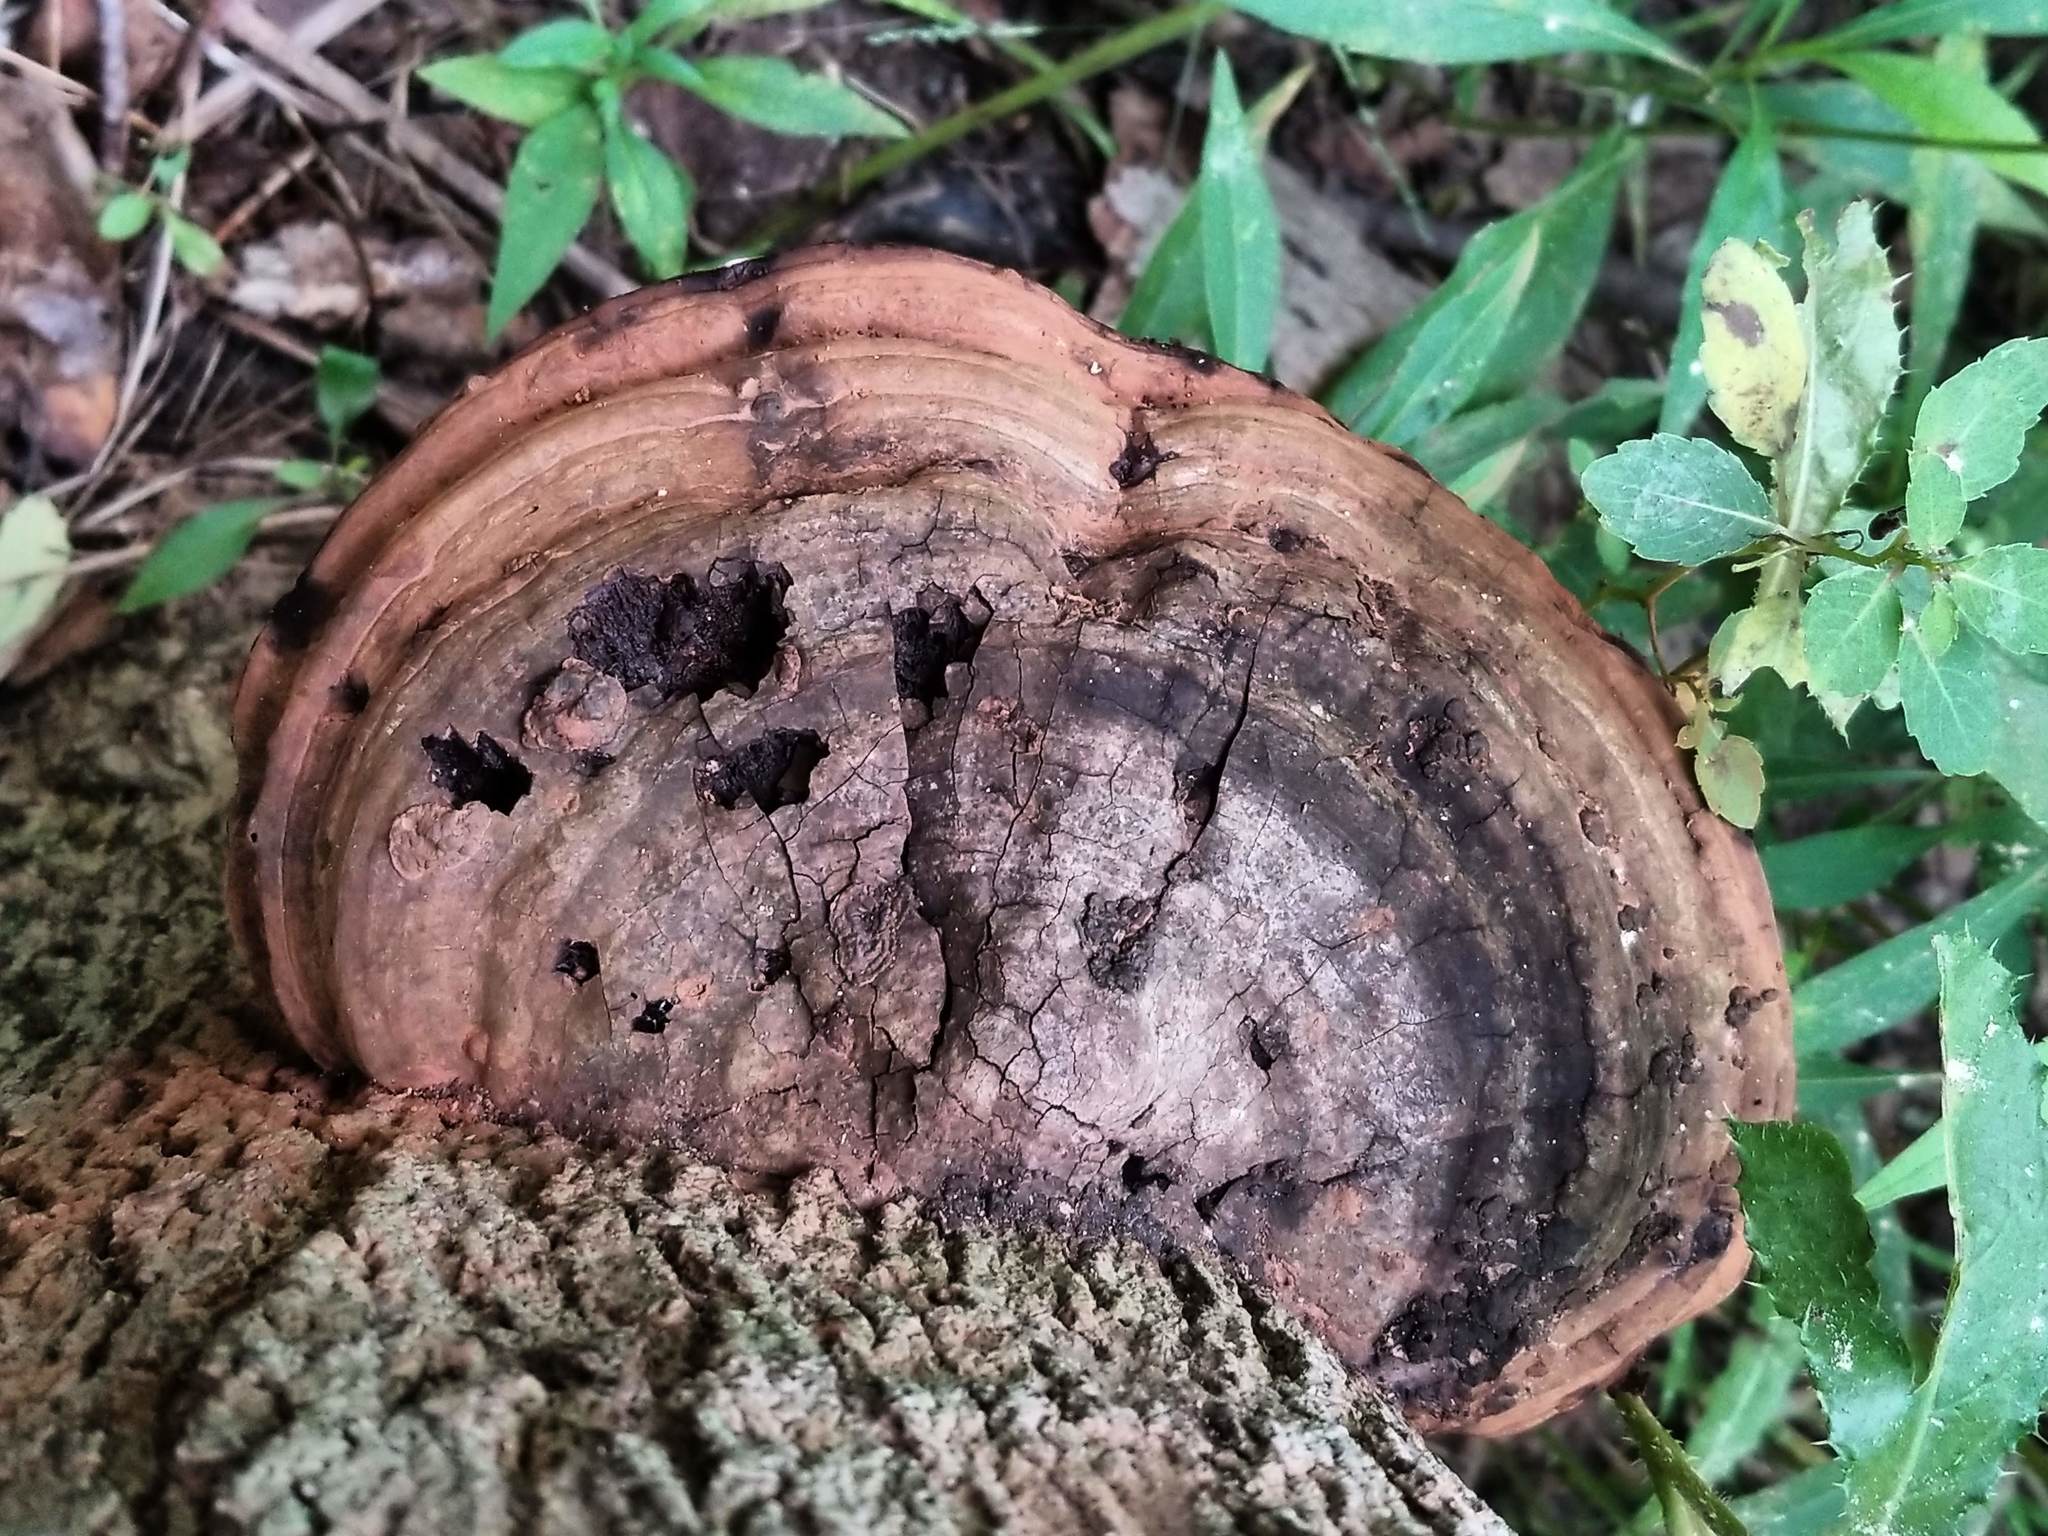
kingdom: Fungi
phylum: Basidiomycota
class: Agaricomycetes
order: Polyporales
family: Polyporaceae
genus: Ganoderma
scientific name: Ganoderma applanatum
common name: Artist's bracket
